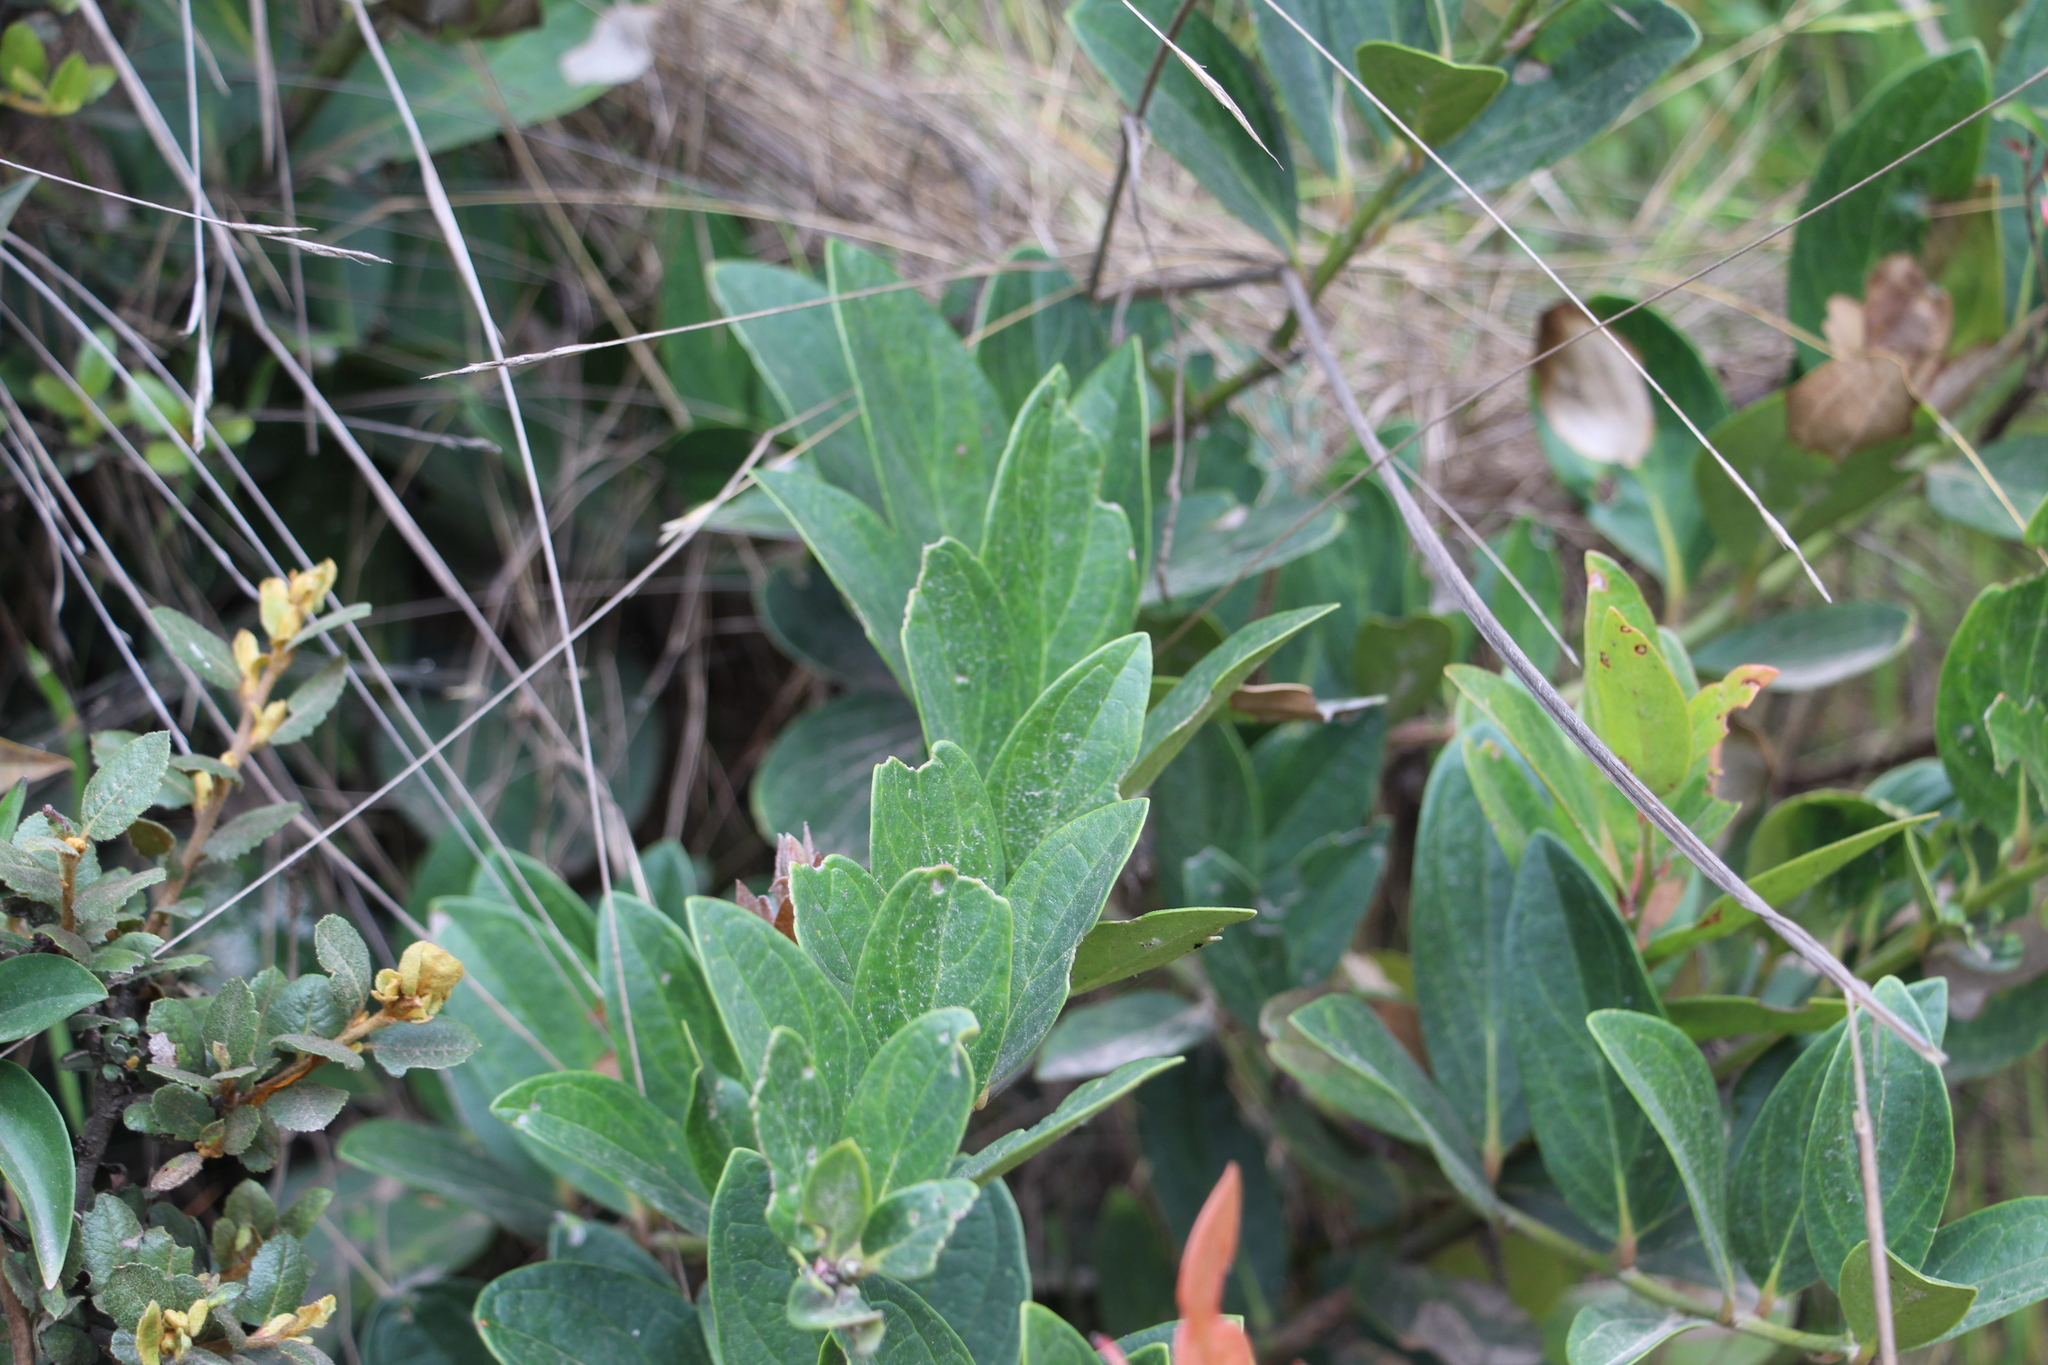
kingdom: Plantae
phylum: Tracheophyta
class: Magnoliopsida
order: Ericales
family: Ericaceae
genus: Macleania
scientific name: Macleania rupestris
